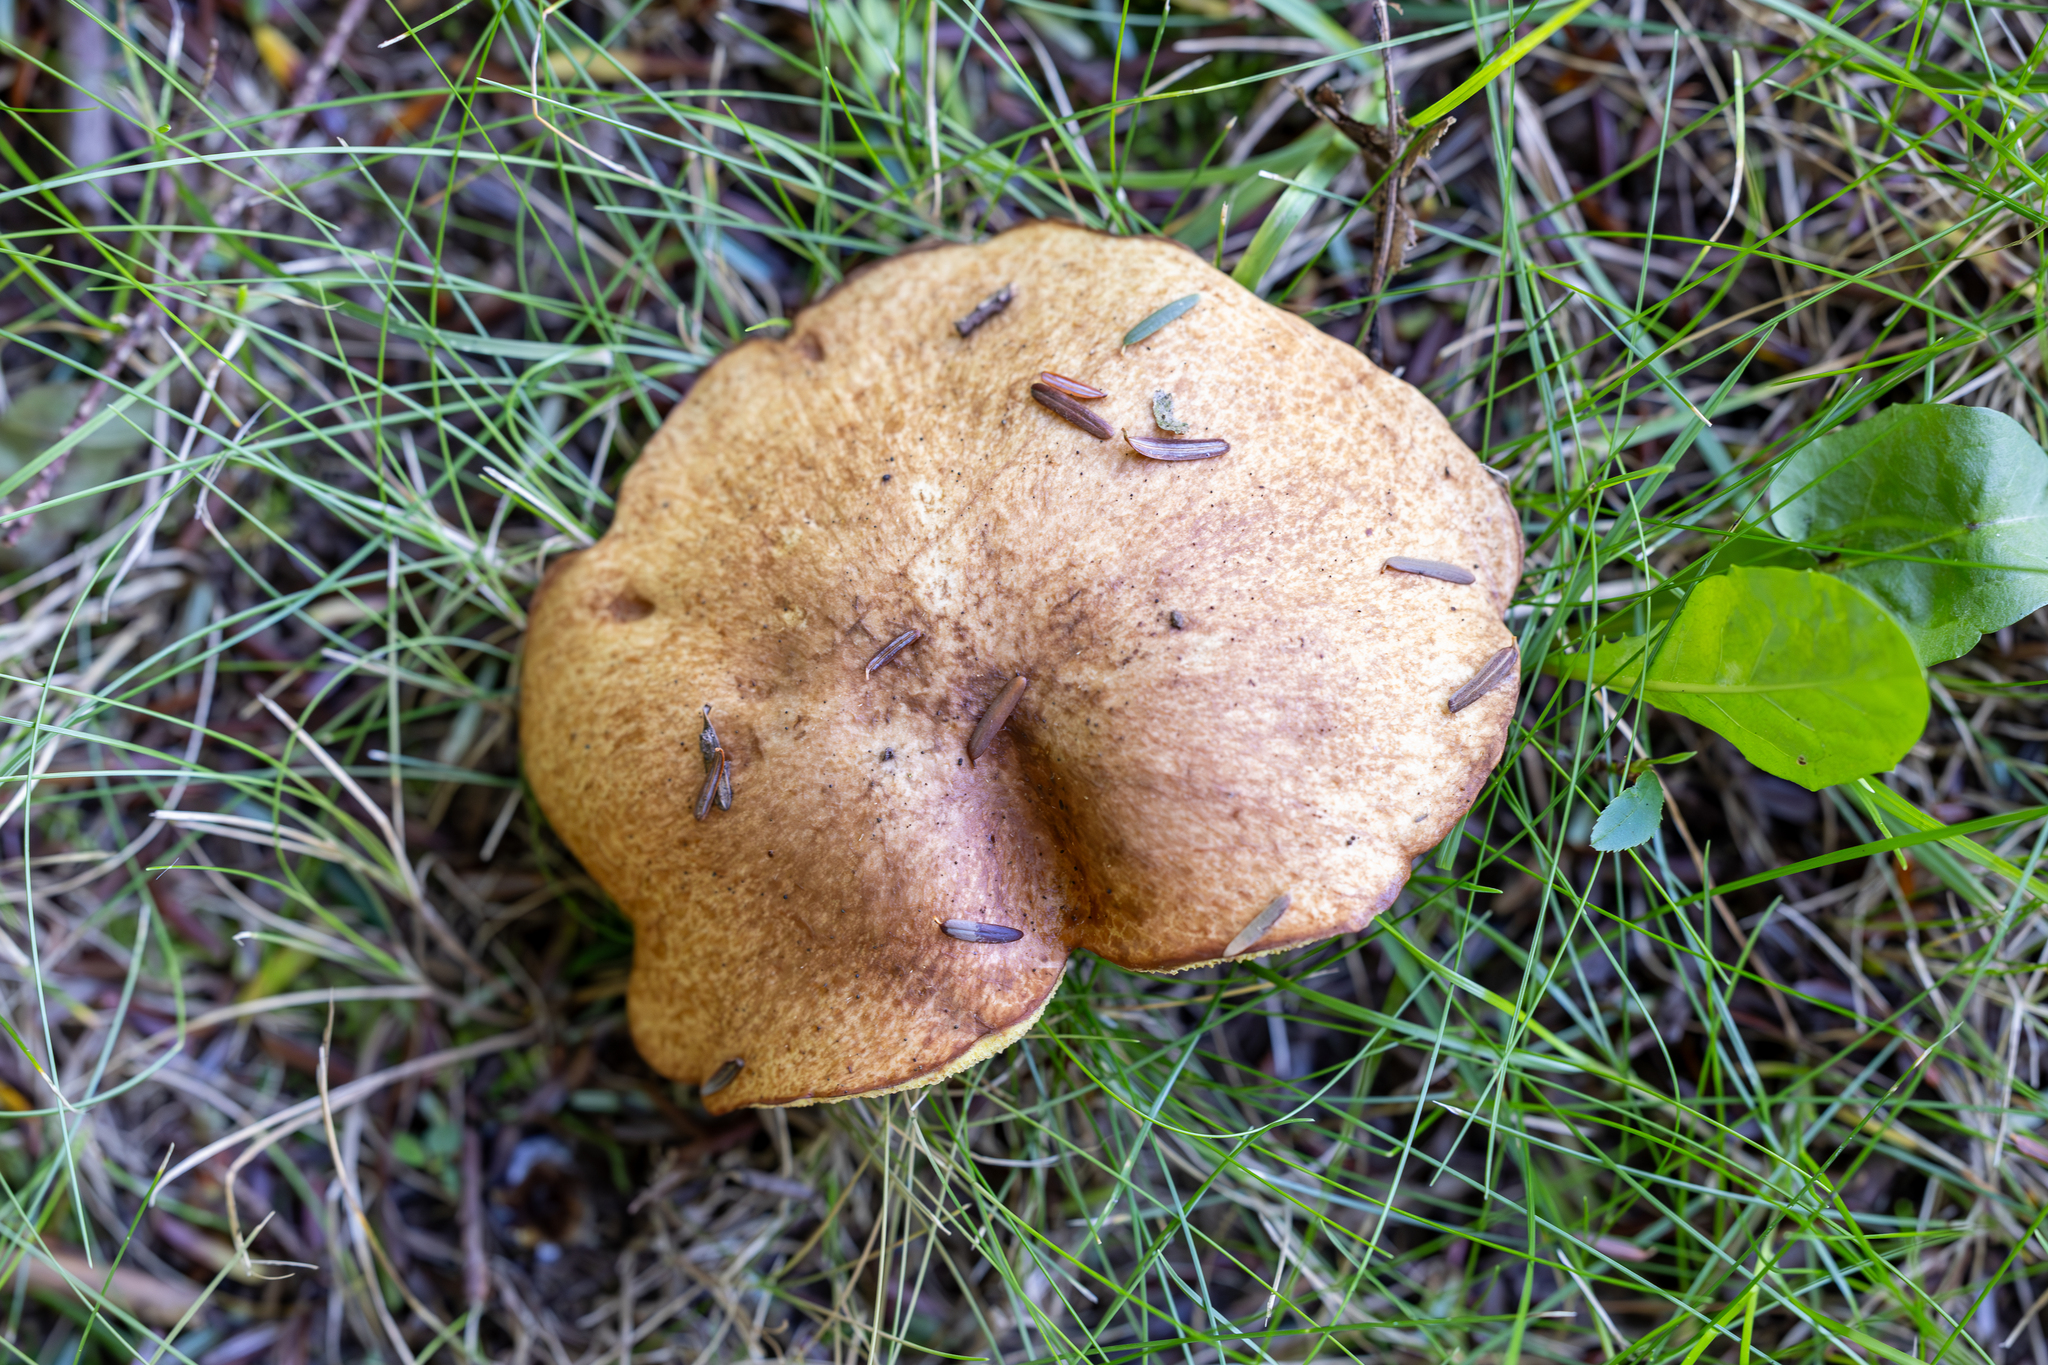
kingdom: Fungi
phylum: Basidiomycota
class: Agaricomycetes
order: Boletales
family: Suillaceae
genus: Suillus
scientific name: Suillus granulatus
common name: Weeping bolete
